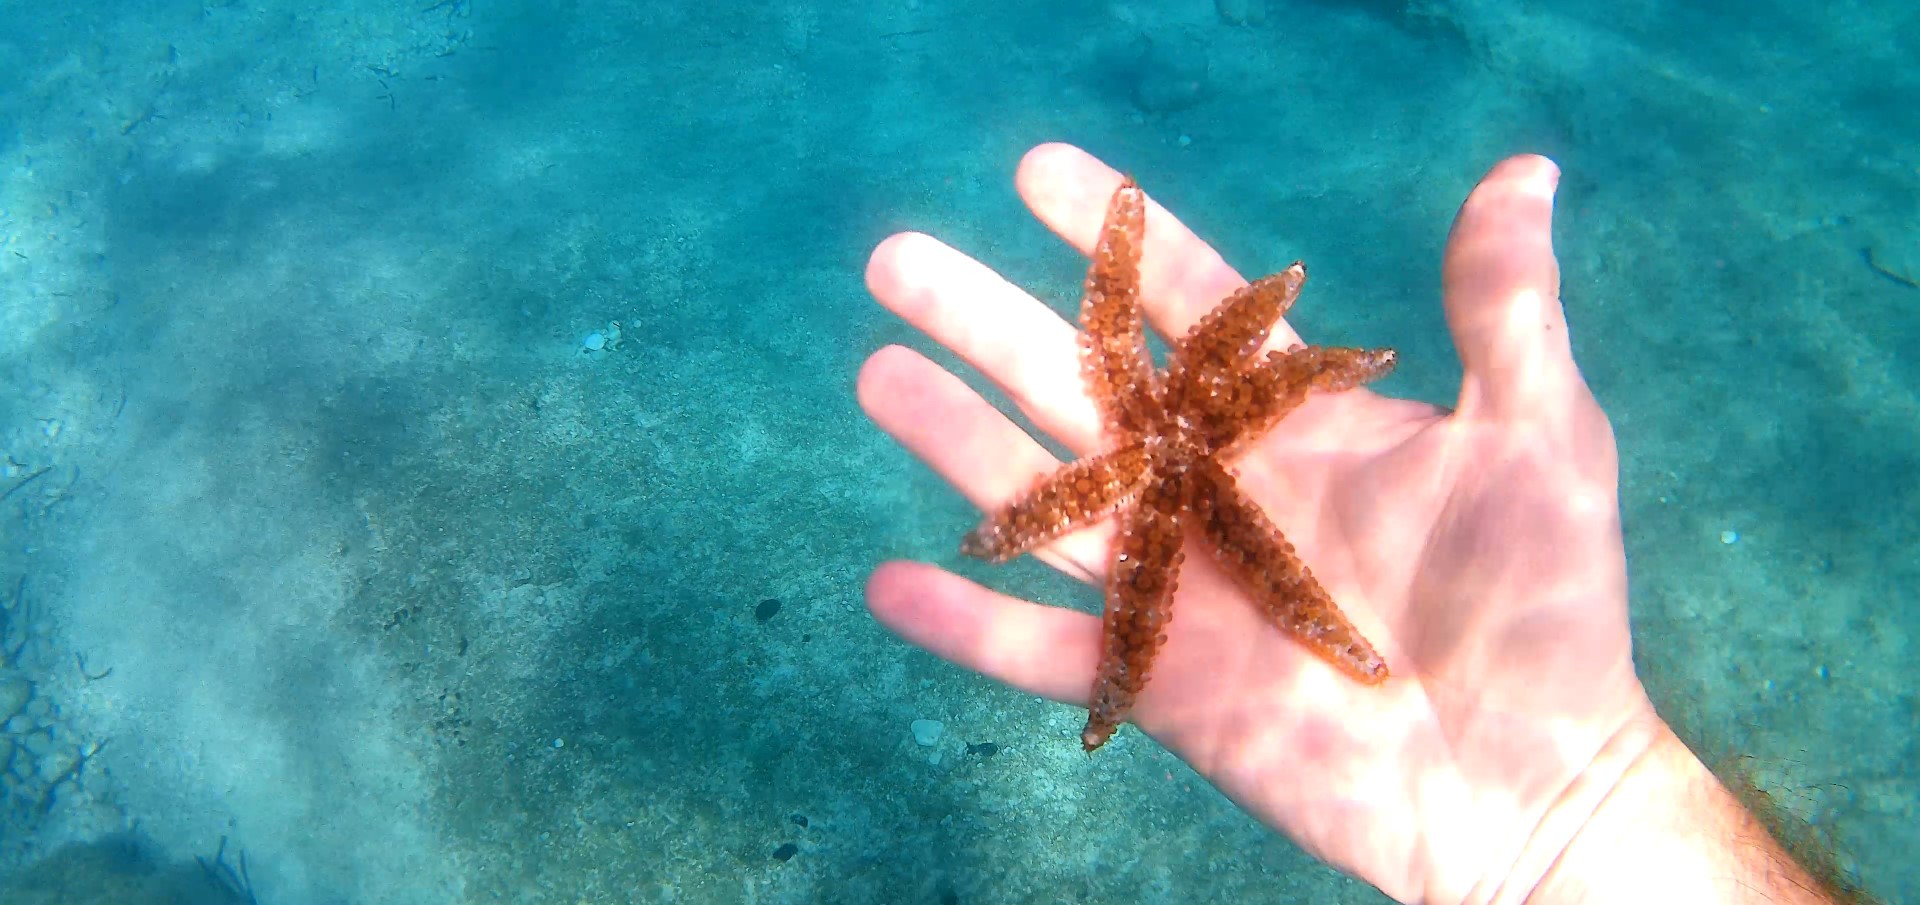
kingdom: Animalia
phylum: Echinodermata
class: Asteroidea
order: Forcipulatida
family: Asteriidae
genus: Coscinasterias
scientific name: Coscinasterias tenuispina
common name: Blue spiny starfish
